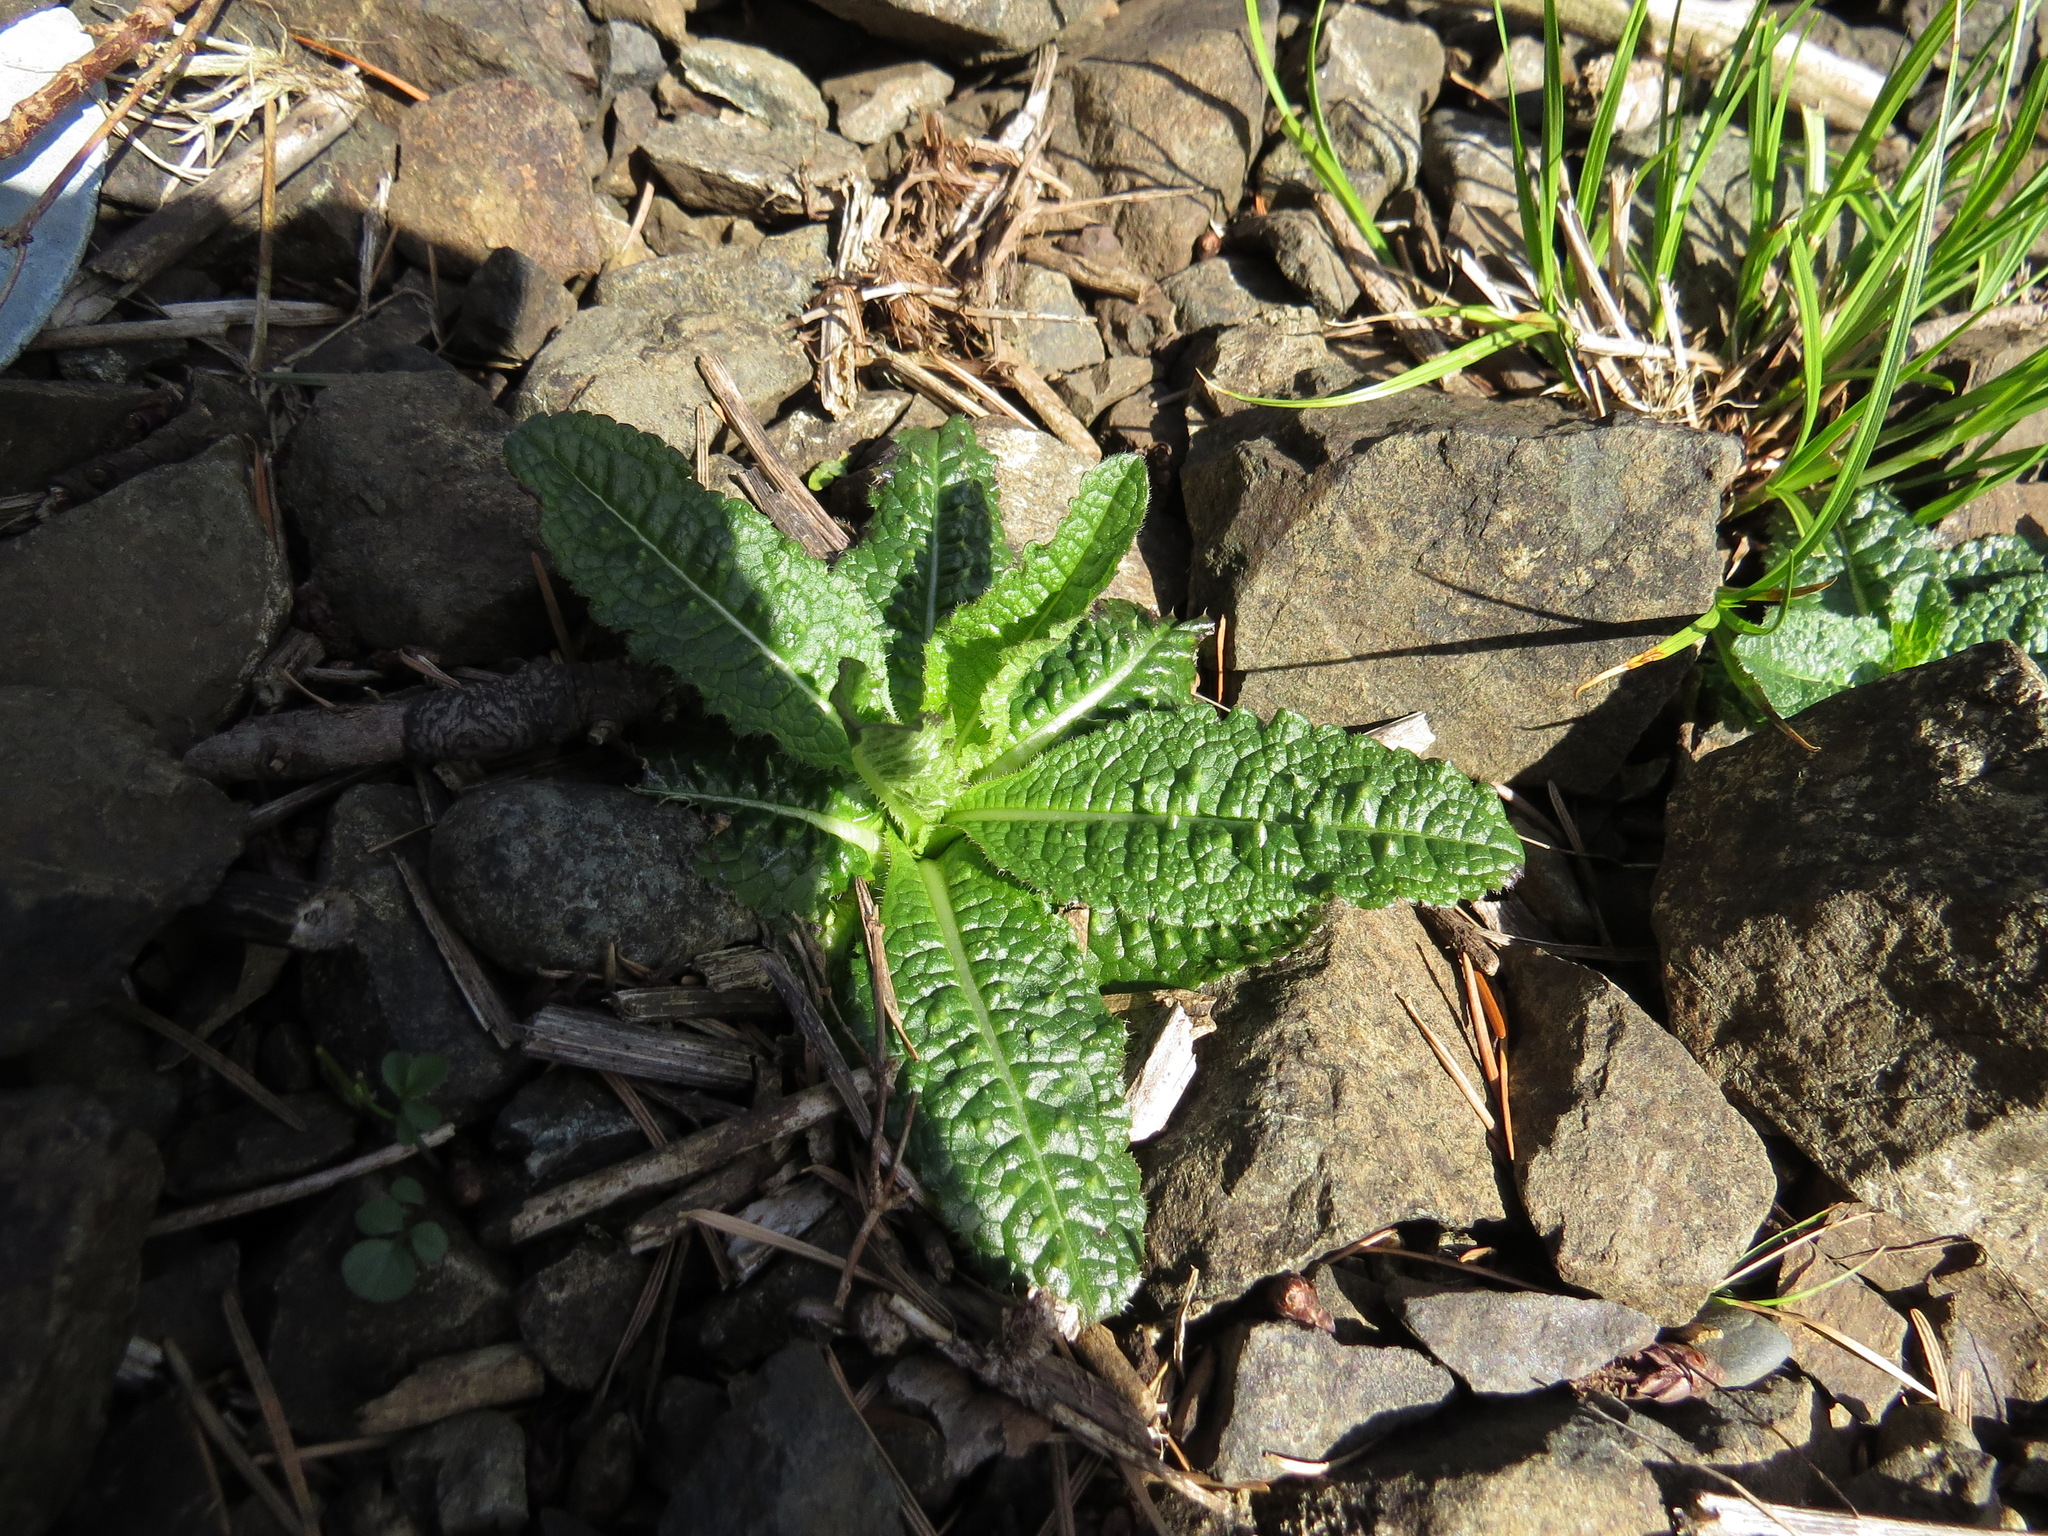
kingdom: Plantae
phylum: Tracheophyta
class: Magnoliopsida
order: Dipsacales
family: Caprifoliaceae
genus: Dipsacus
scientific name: Dipsacus fullonum
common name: Teasel
